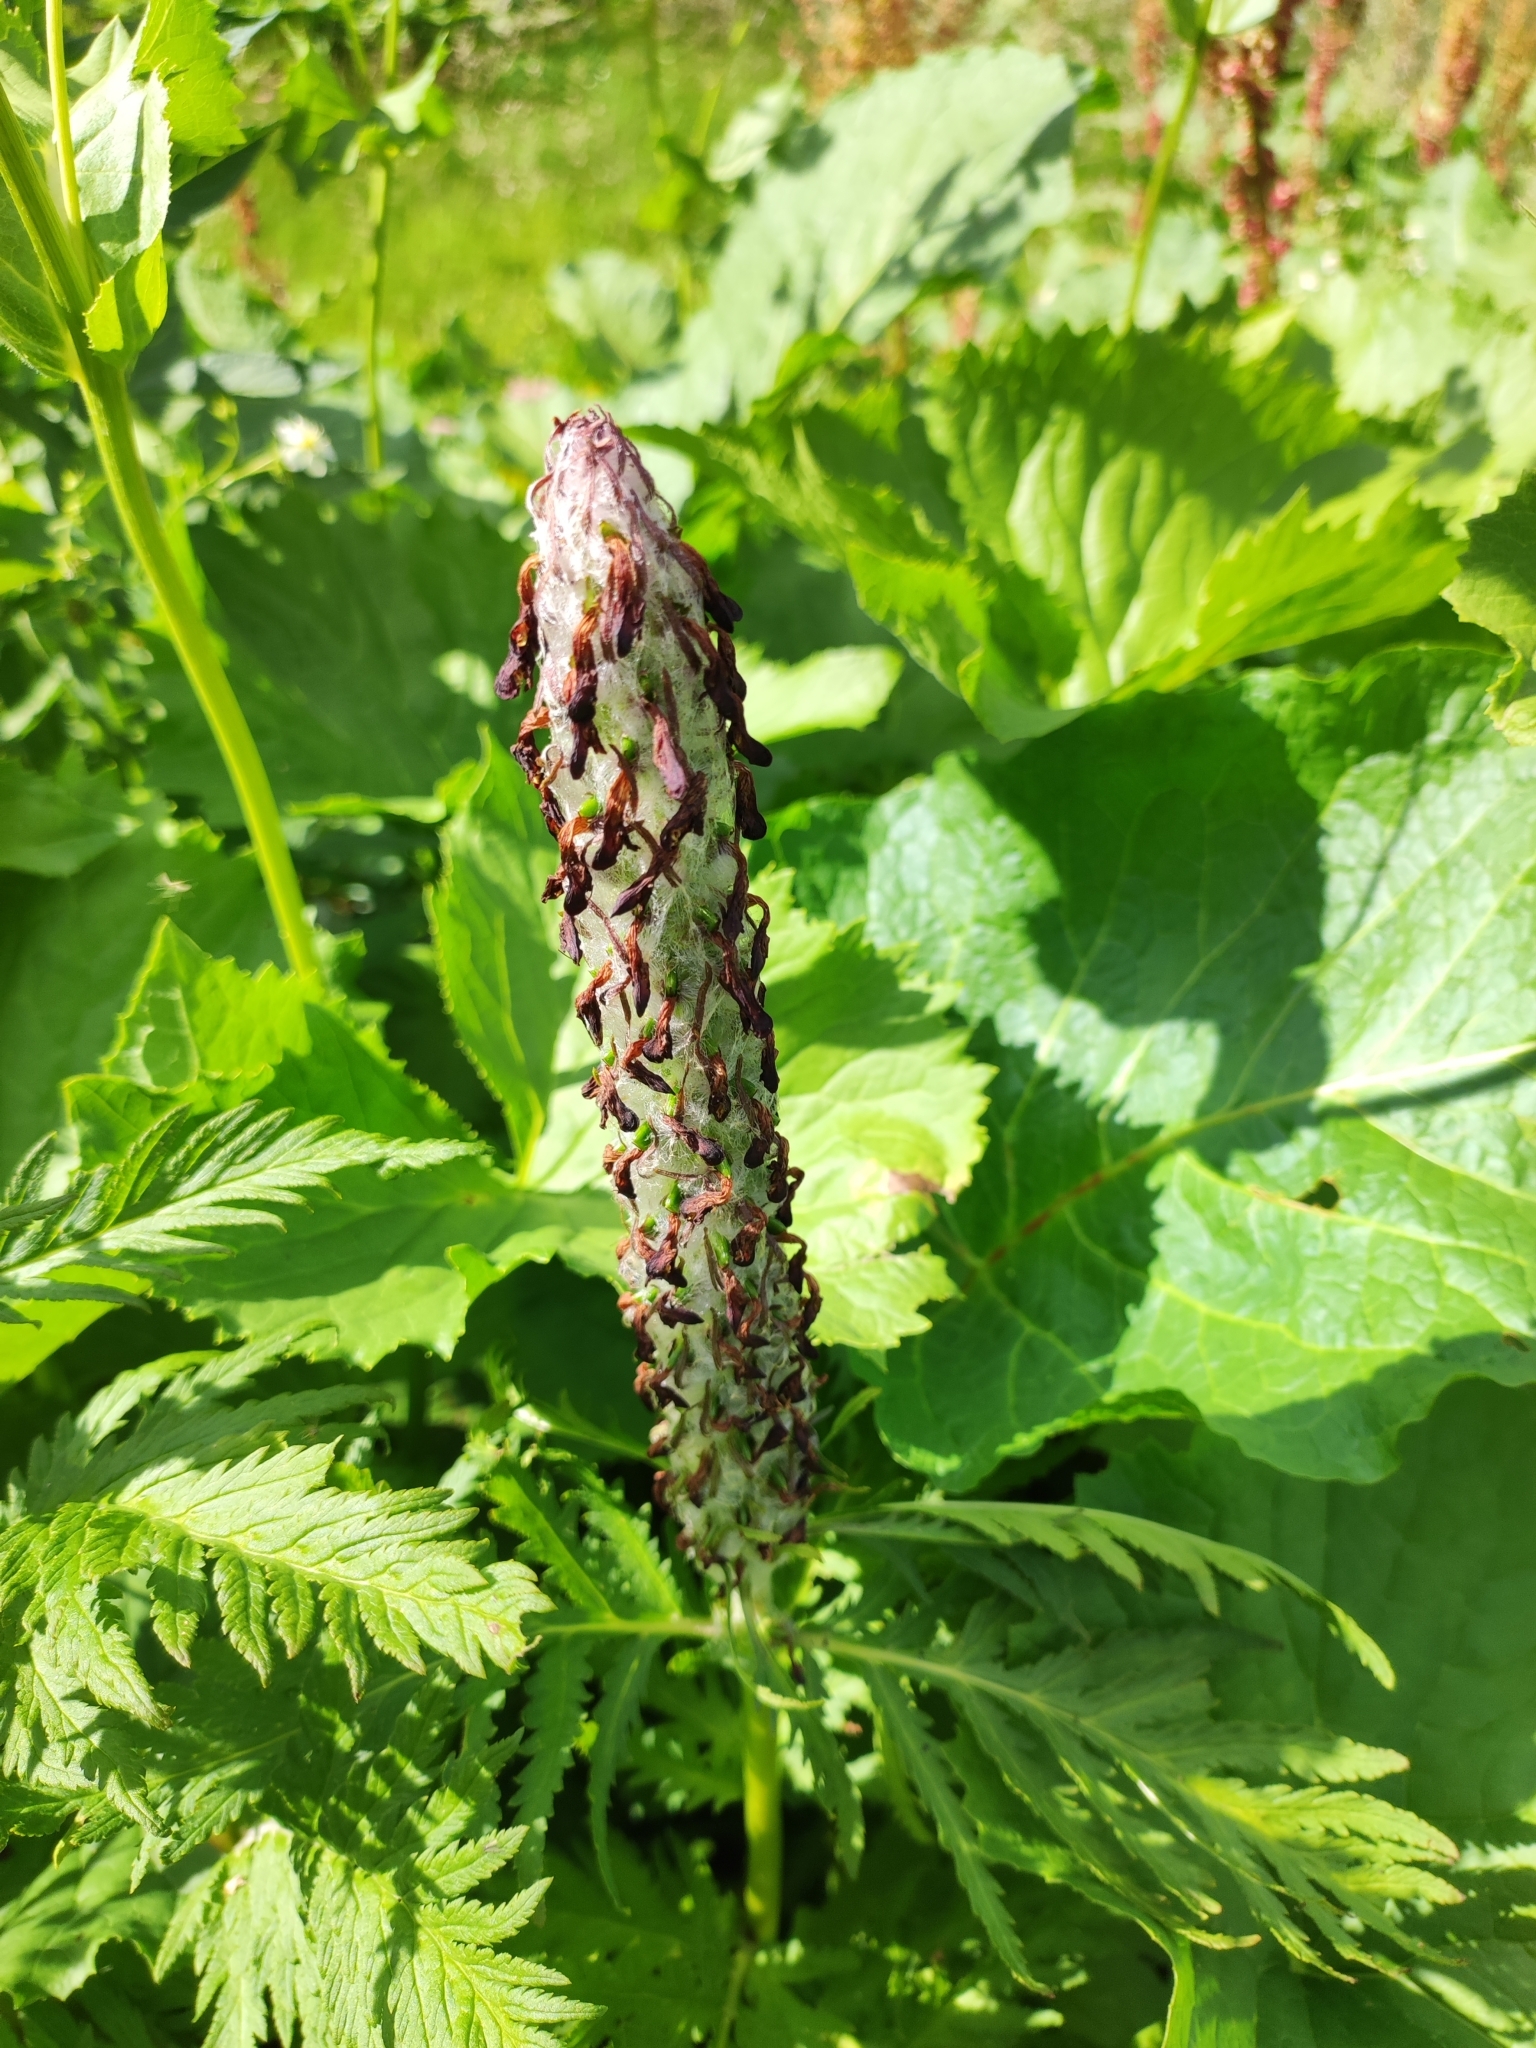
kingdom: Plantae
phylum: Tracheophyta
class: Magnoliopsida
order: Lamiales
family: Orobanchaceae
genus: Pedicularis
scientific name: Pedicularis atropurpurea
